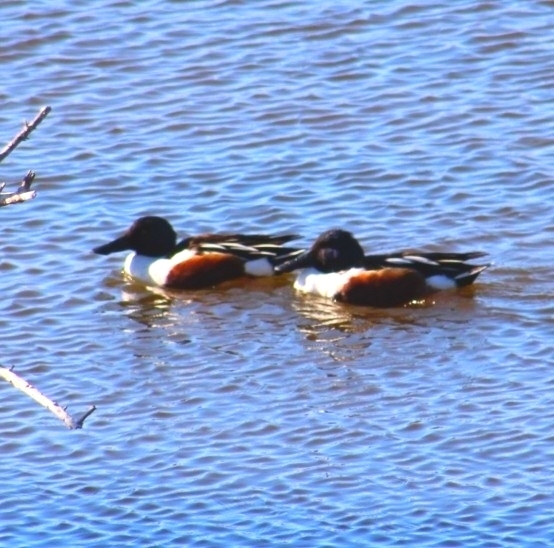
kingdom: Animalia
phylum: Chordata
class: Aves
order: Anseriformes
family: Anatidae
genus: Spatula
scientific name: Spatula clypeata
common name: Northern shoveler
